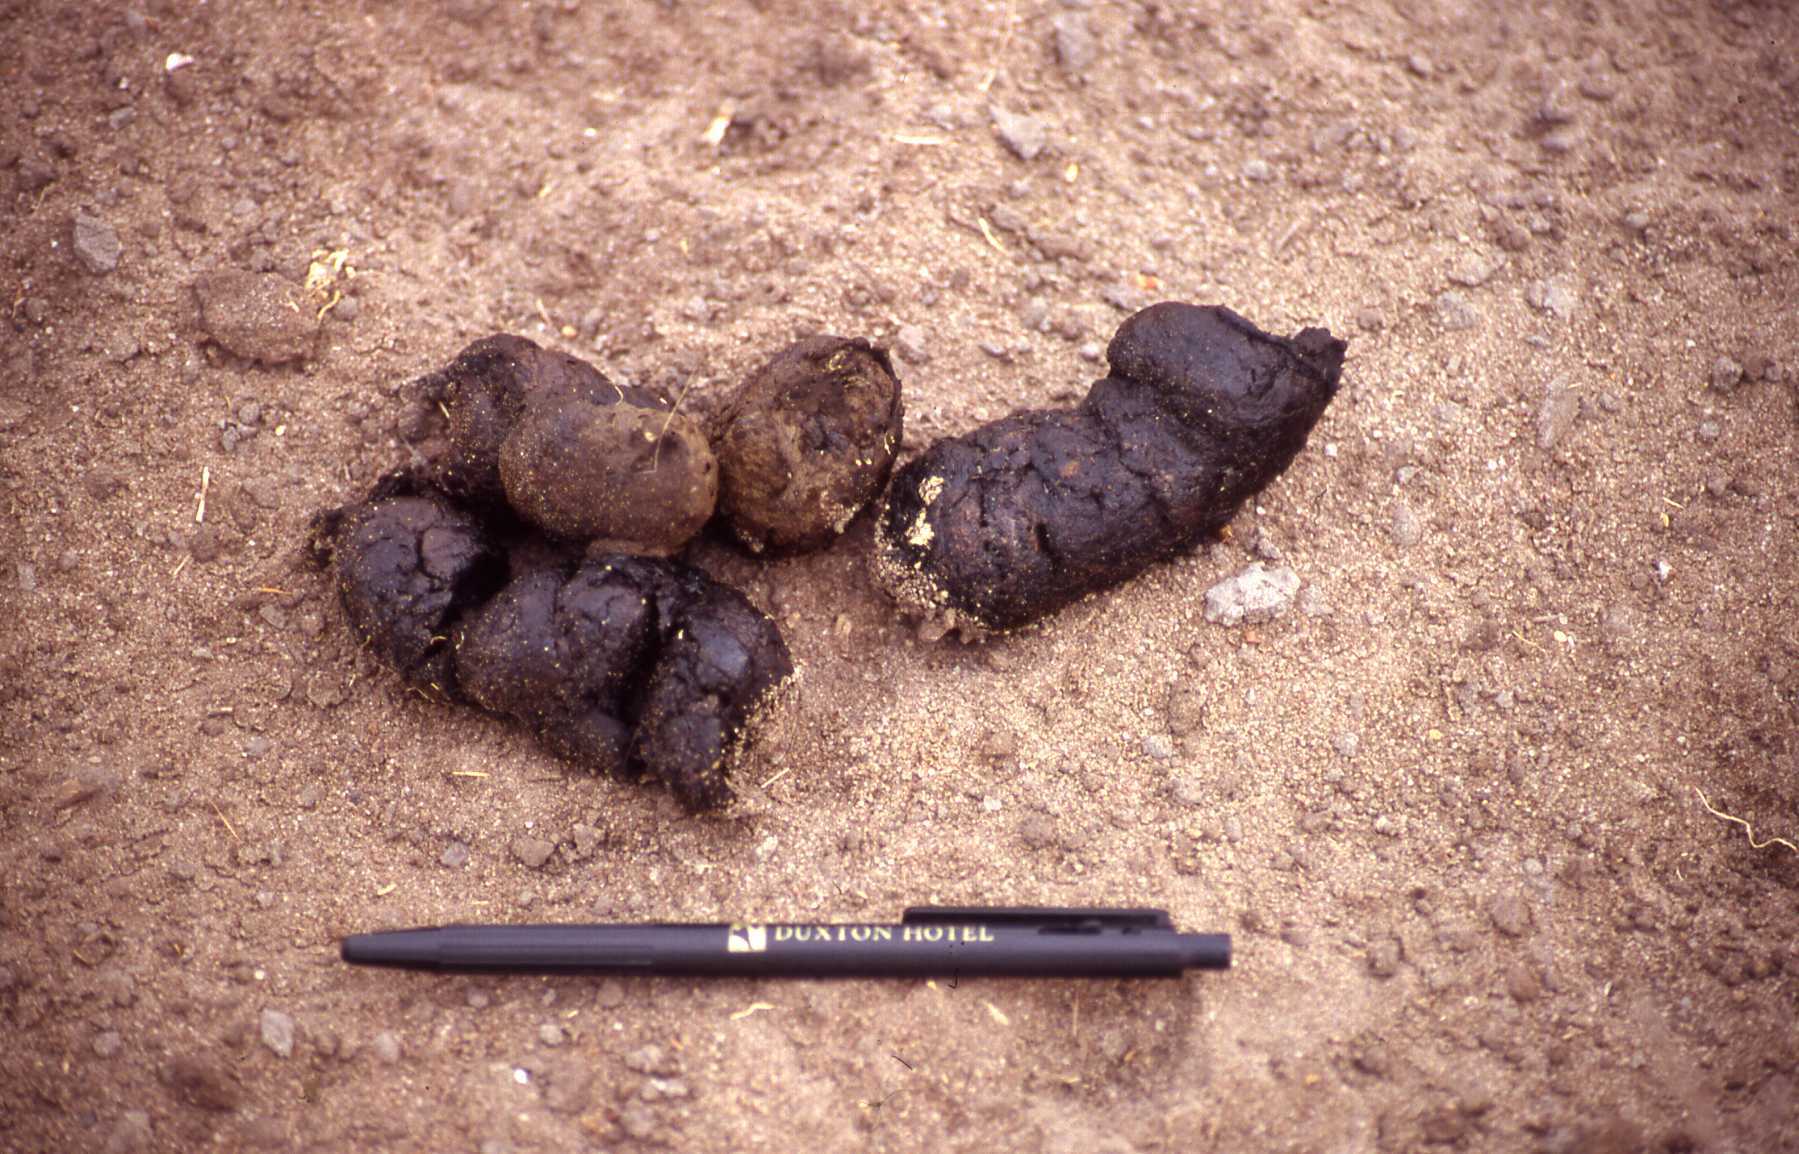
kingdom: Animalia
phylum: Chordata
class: Mammalia
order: Carnivora
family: Canidae
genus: Lycaon
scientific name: Lycaon pictus
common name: African wild dog
